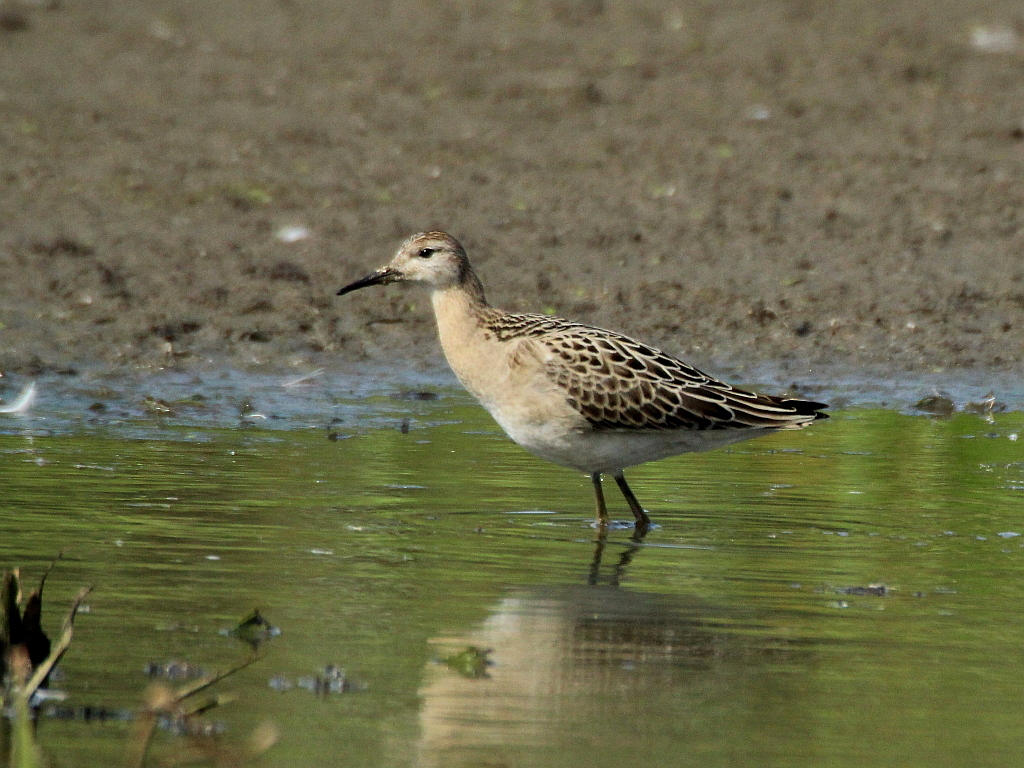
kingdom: Animalia
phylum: Chordata
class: Aves
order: Charadriiformes
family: Scolopacidae
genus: Calidris
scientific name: Calidris pugnax
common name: Ruff
